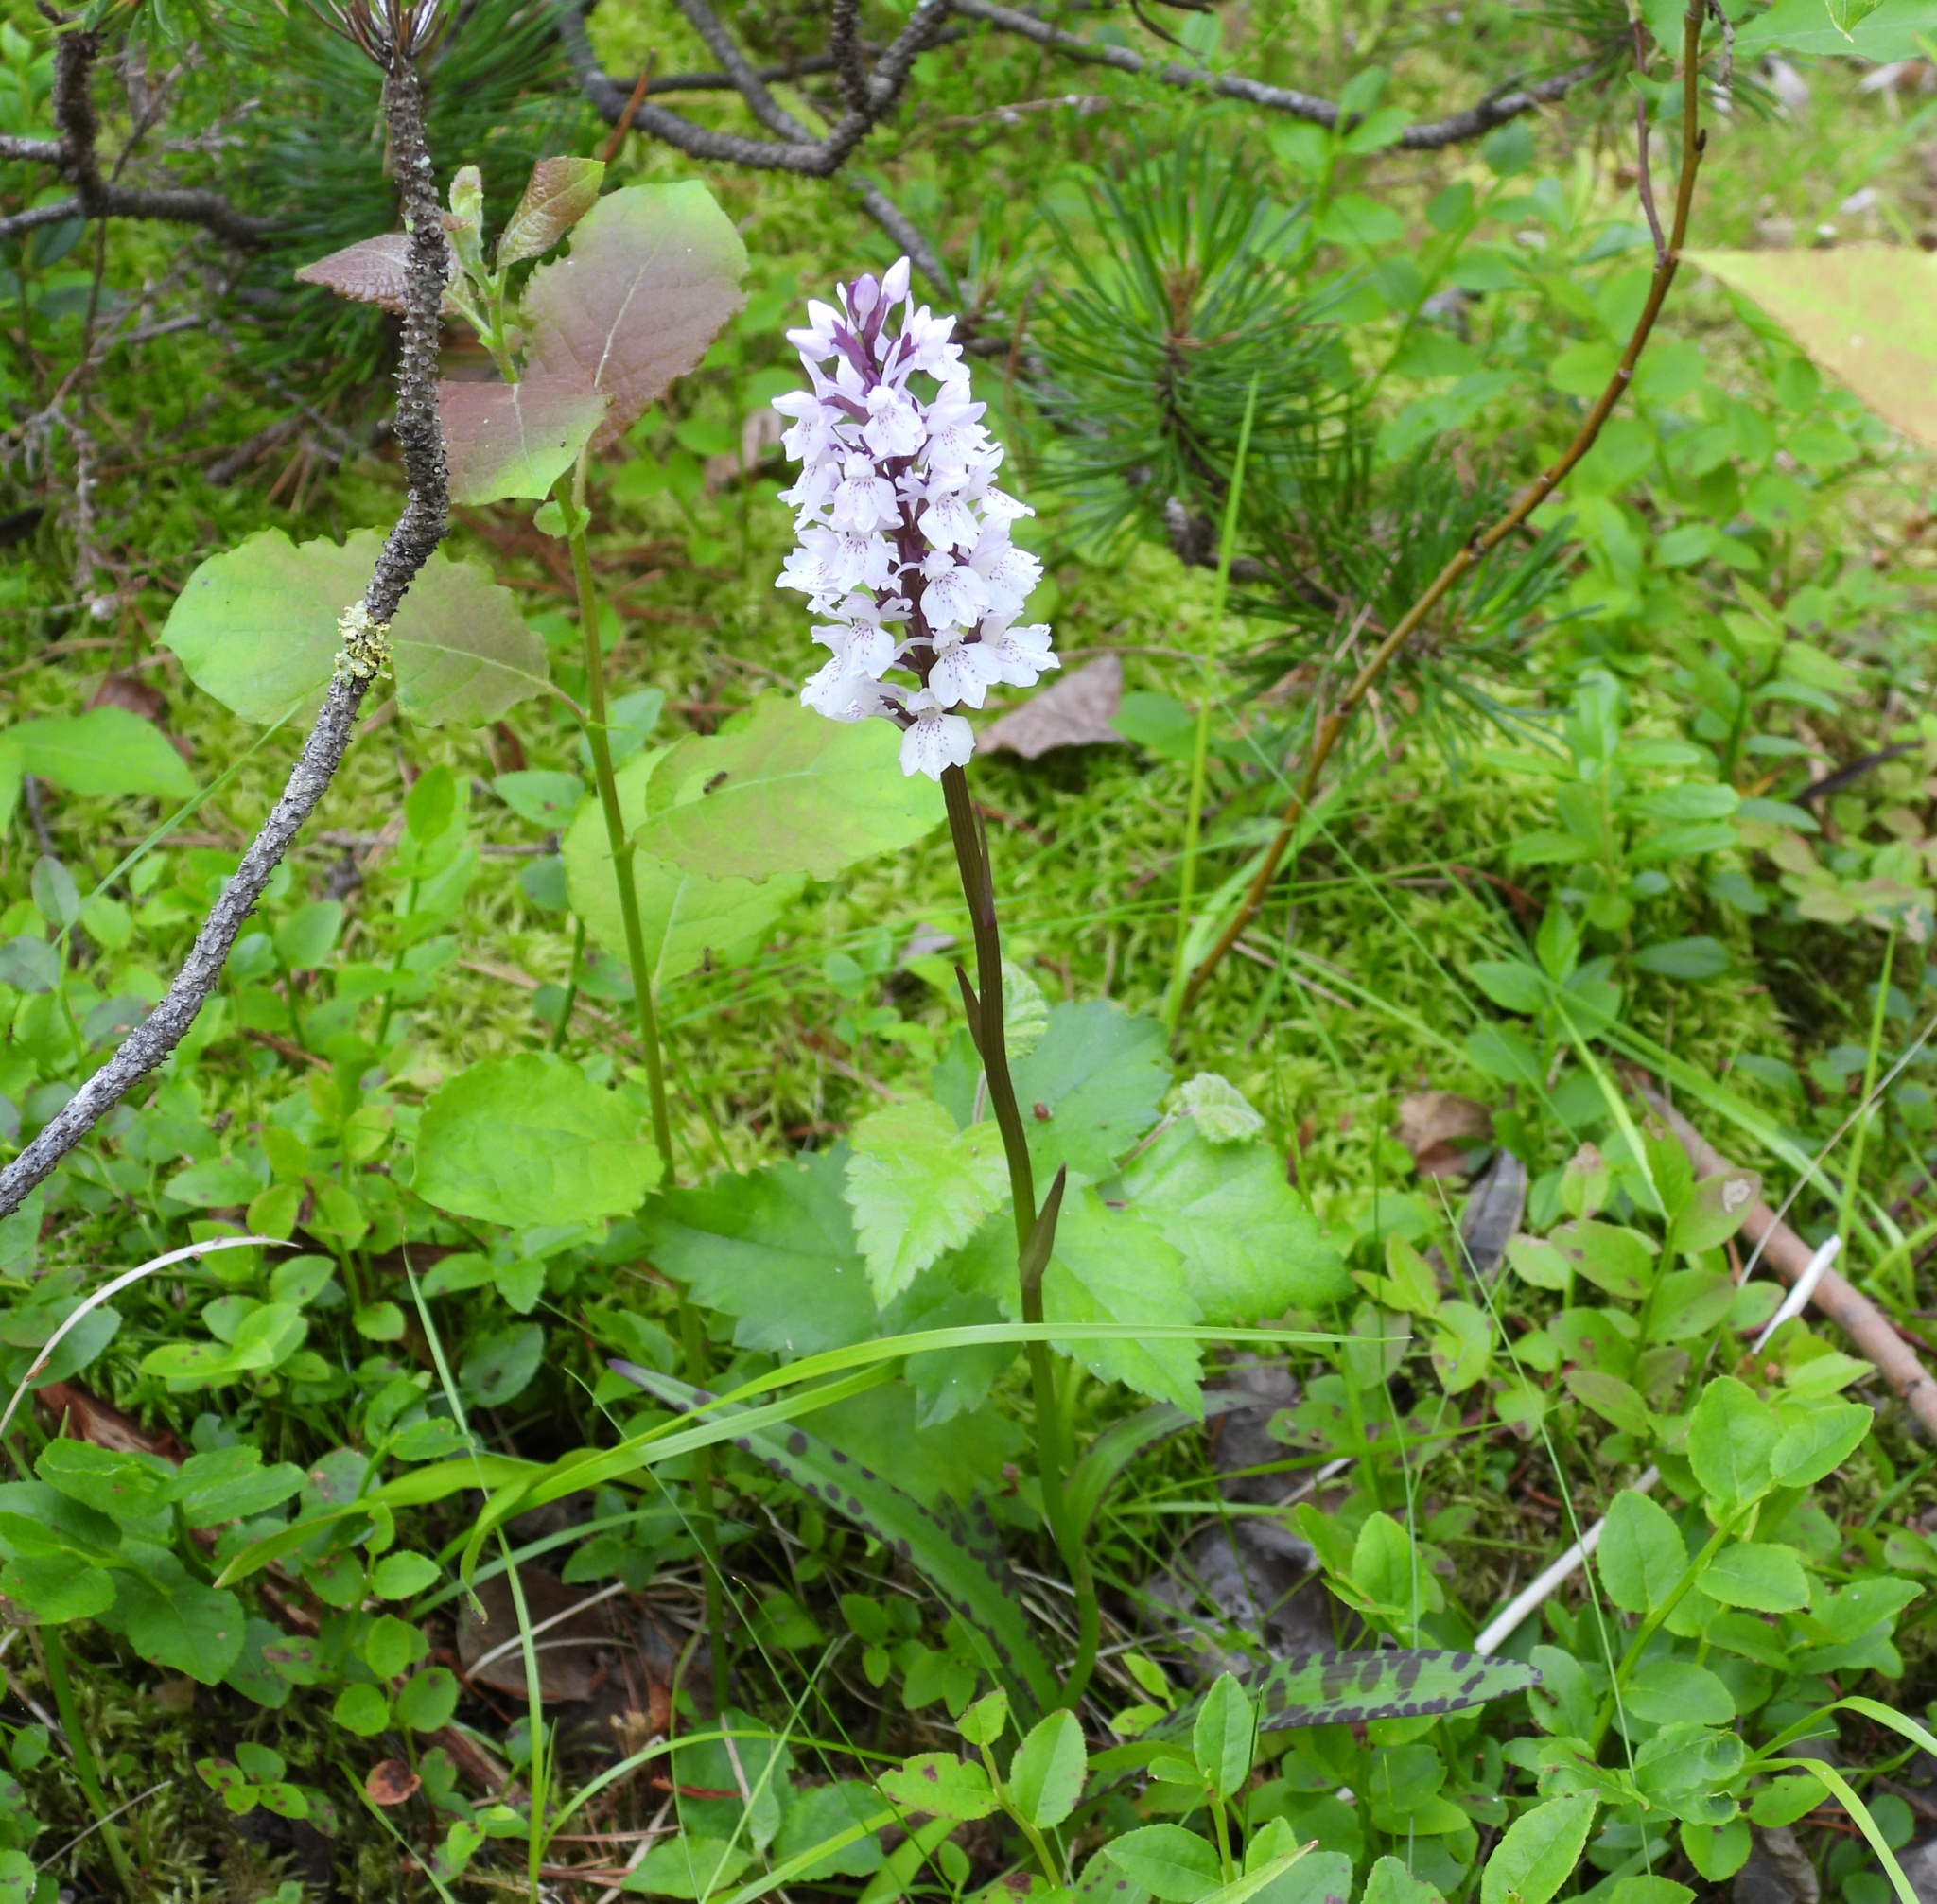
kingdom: Plantae
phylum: Tracheophyta
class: Liliopsida
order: Asparagales
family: Orchidaceae
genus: Dactylorhiza
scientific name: Dactylorhiza maculata
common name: Heath spotted-orchid
